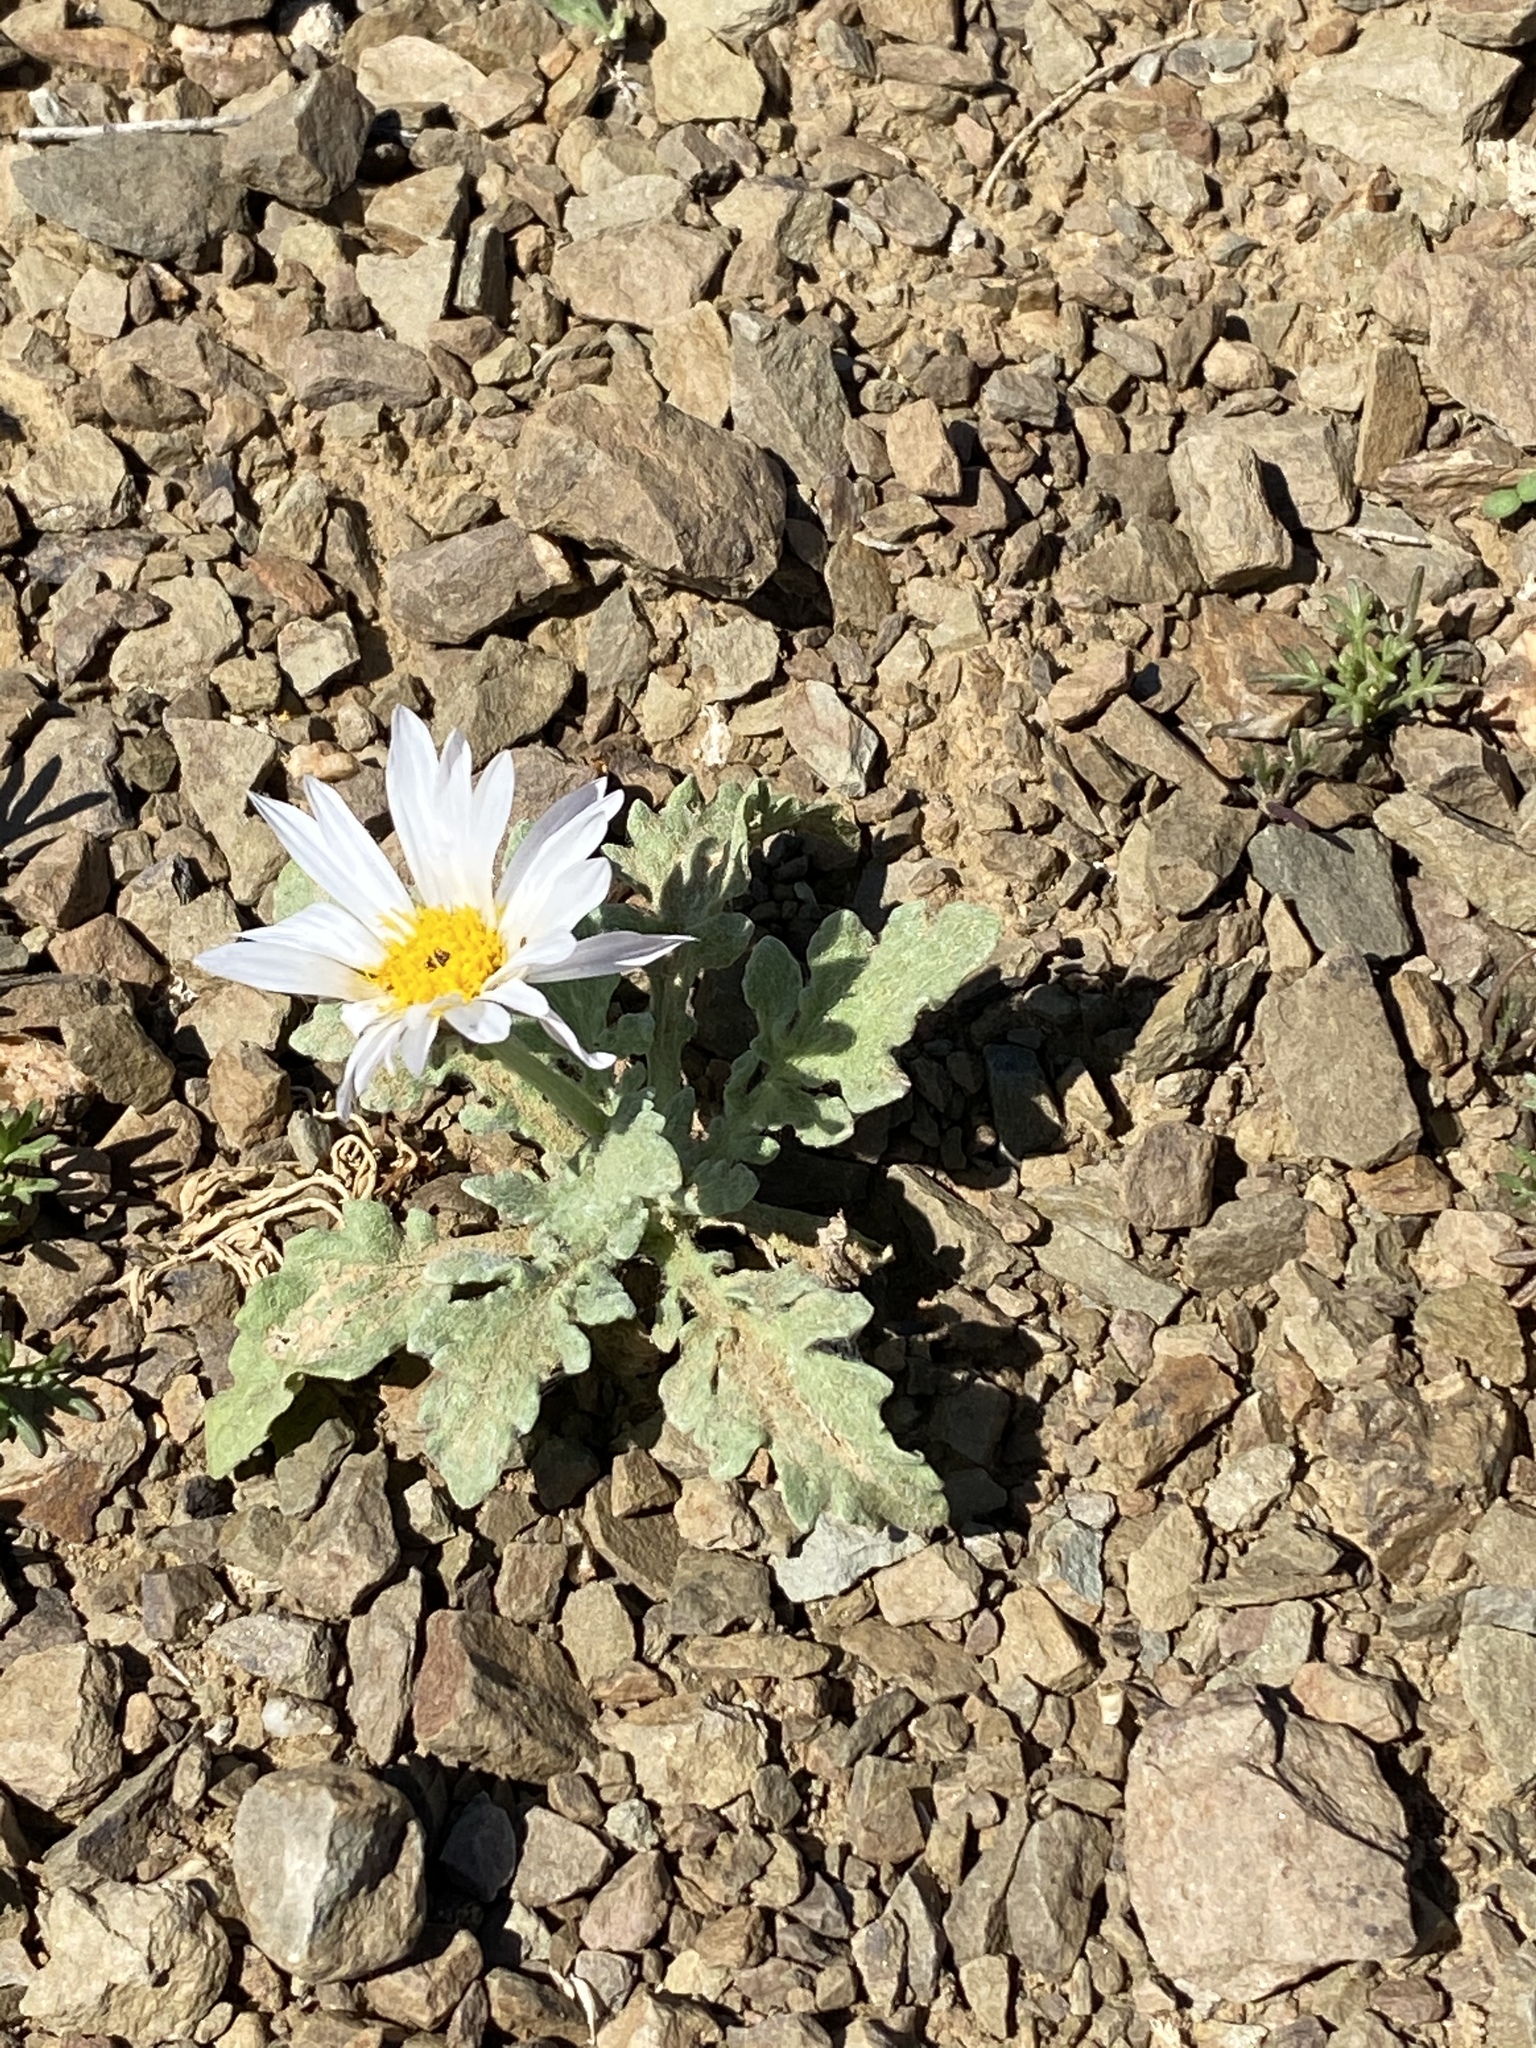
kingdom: Plantae
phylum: Tracheophyta
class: Magnoliopsida
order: Asterales
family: Asteraceae
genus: Arctotis
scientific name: Arctotis leiocarpa
